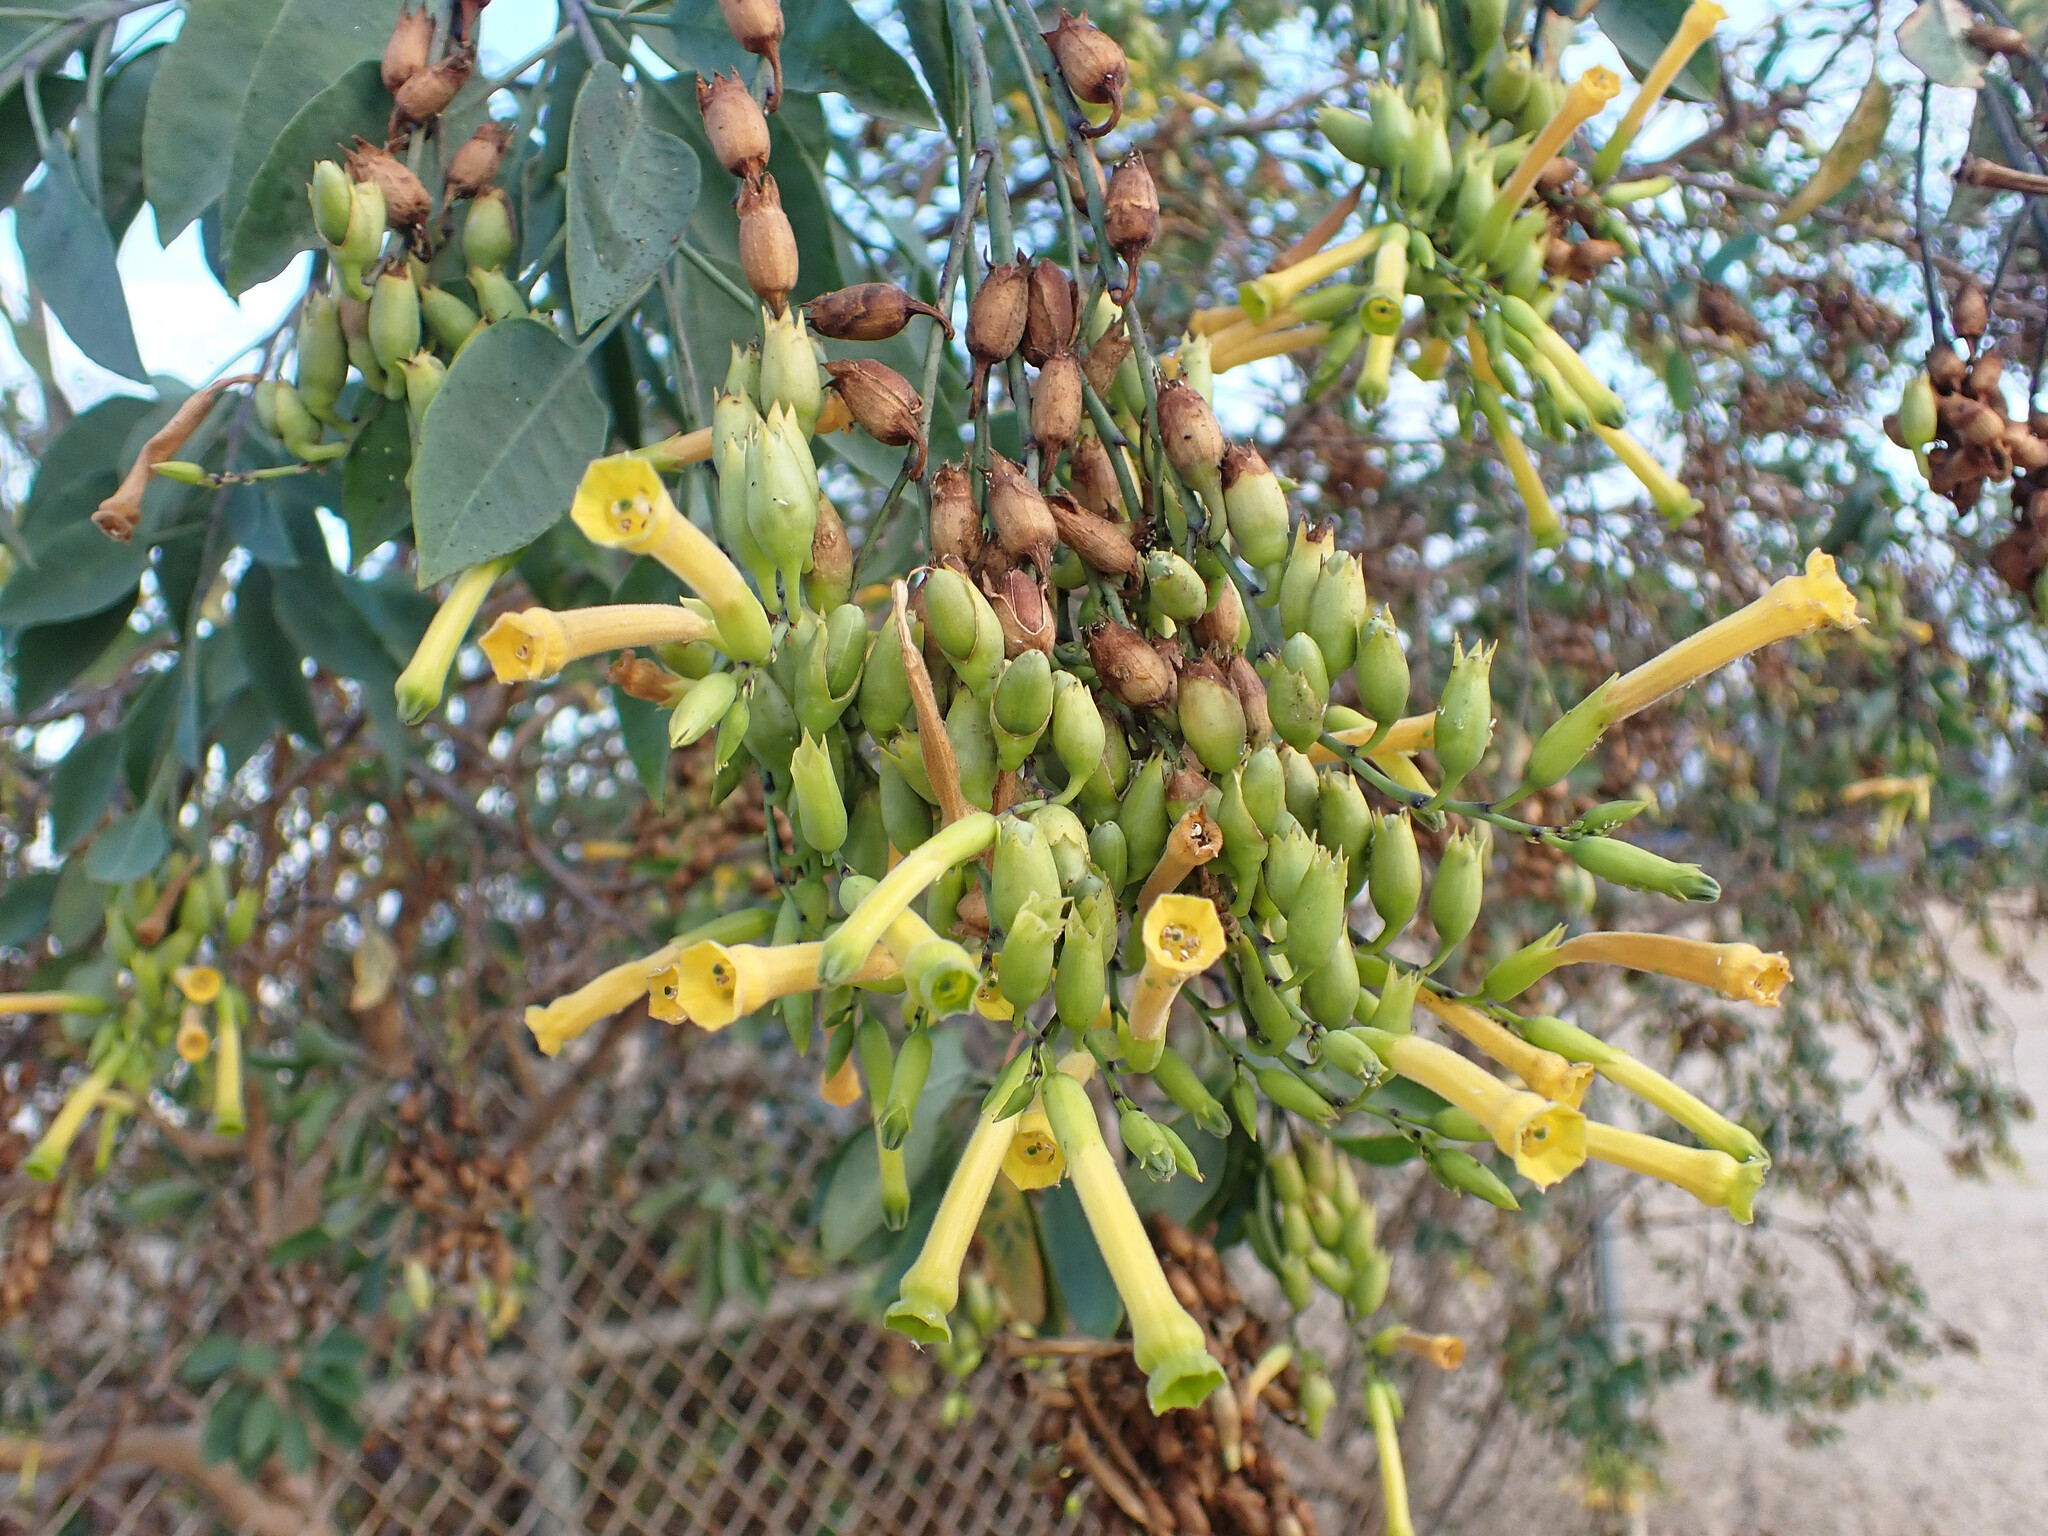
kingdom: Plantae
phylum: Tracheophyta
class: Magnoliopsida
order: Solanales
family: Solanaceae
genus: Nicotiana
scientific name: Nicotiana glauca
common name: Tree tobacco
